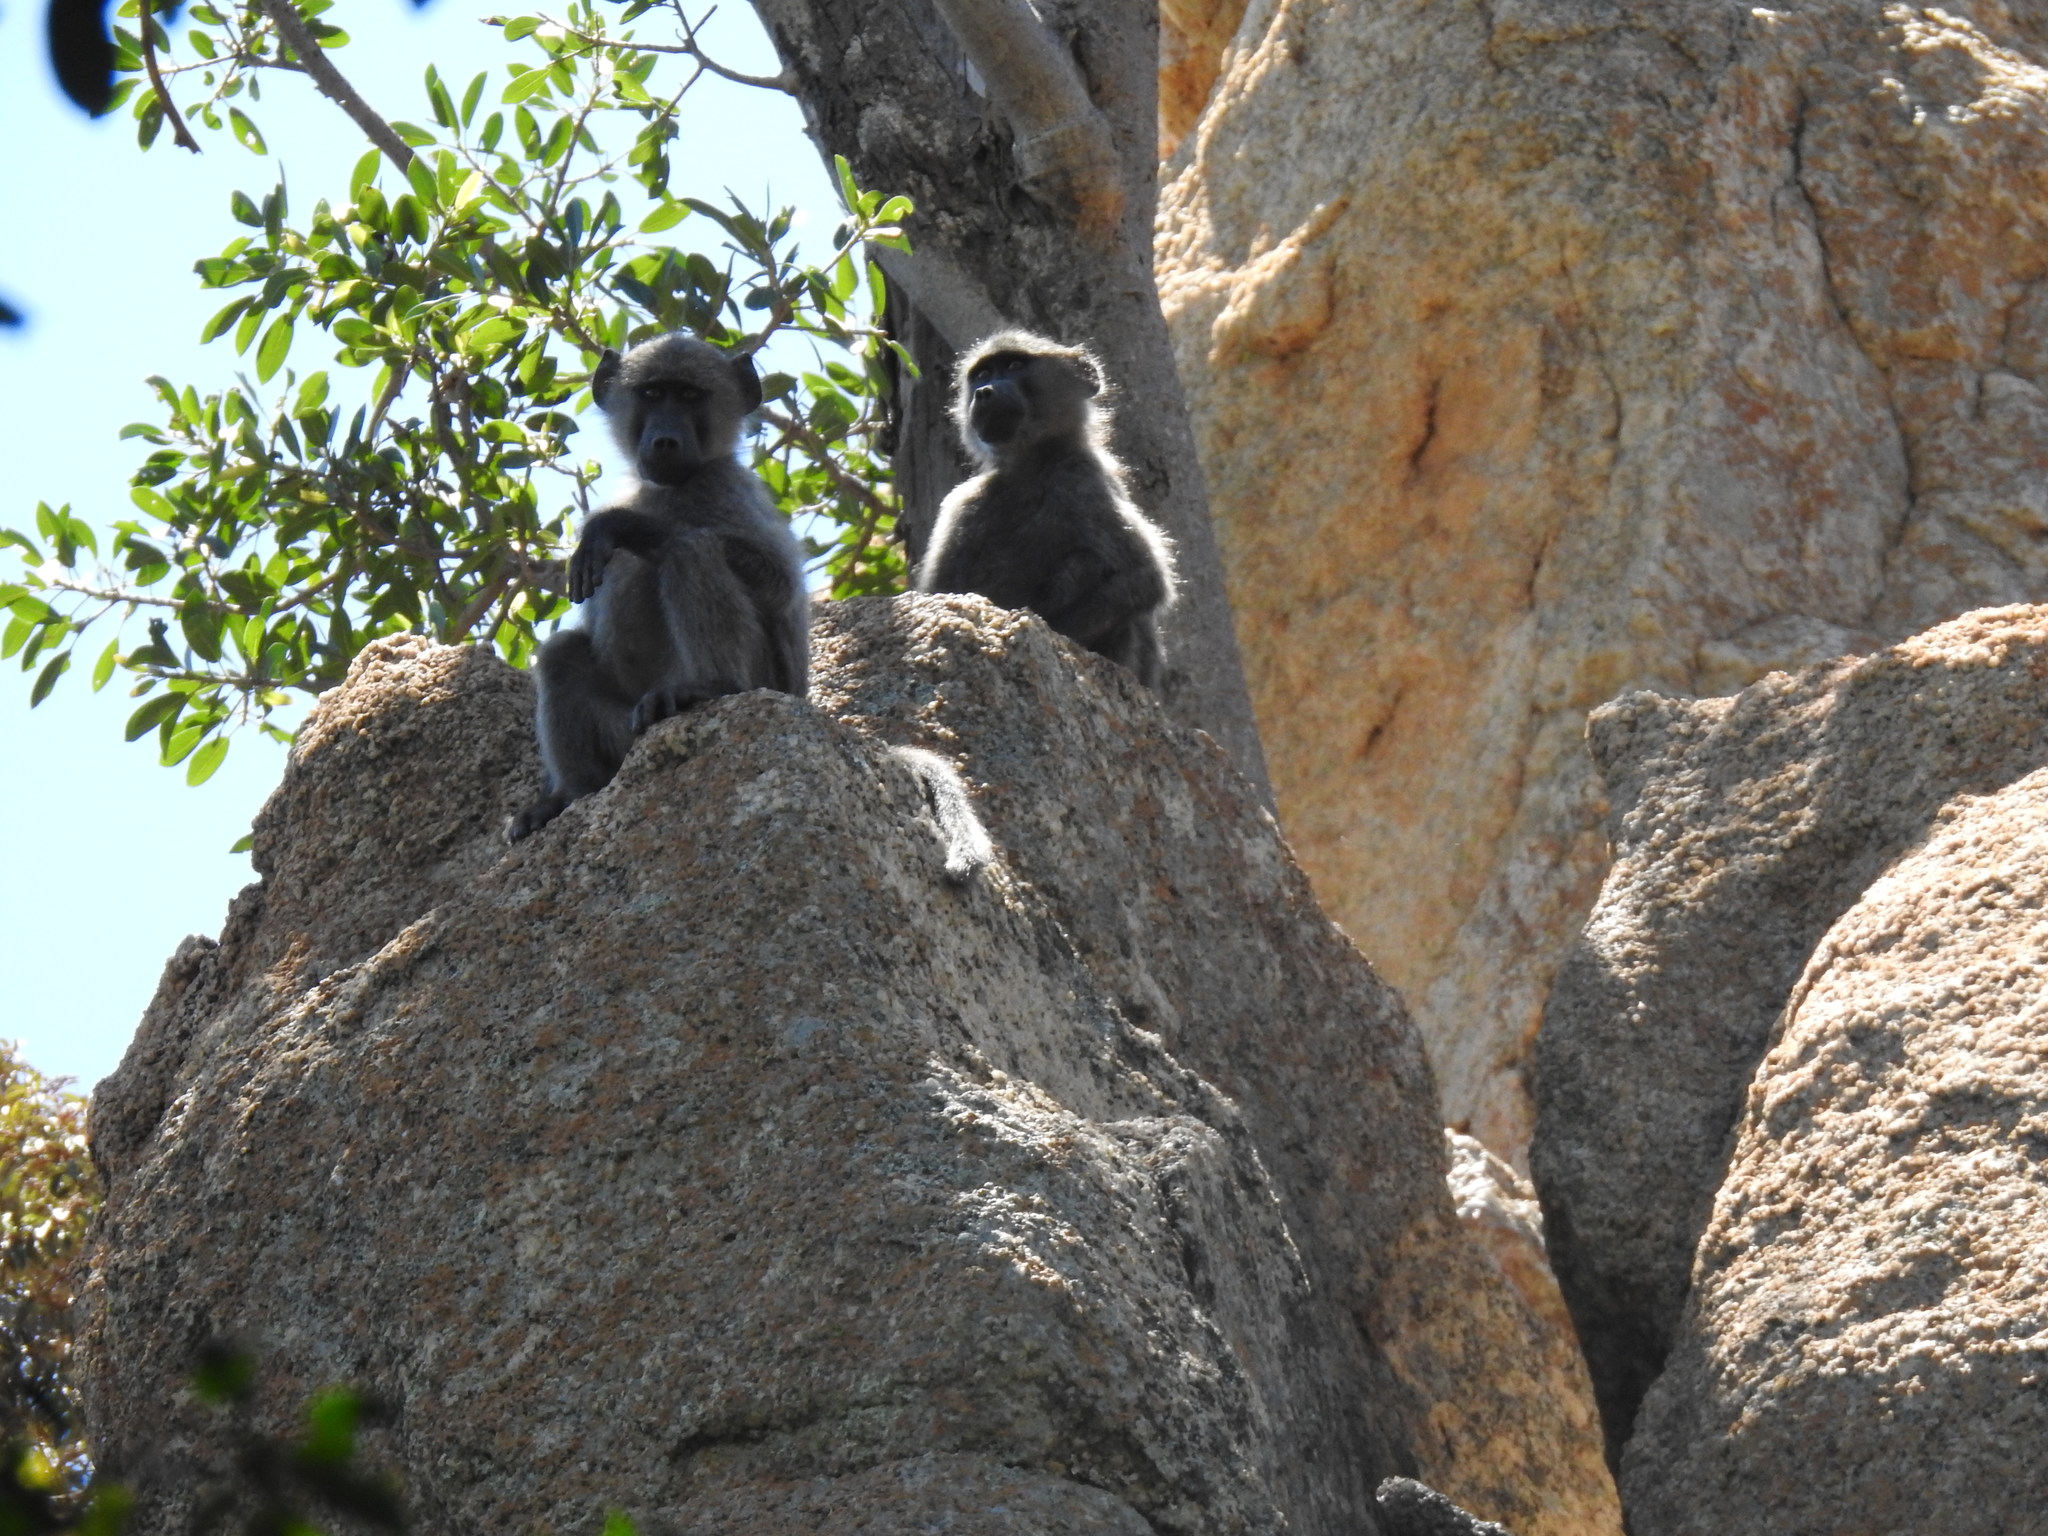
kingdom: Animalia
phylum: Chordata
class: Mammalia
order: Primates
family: Cercopithecidae
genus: Papio
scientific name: Papio ursinus
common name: Chacma baboon
